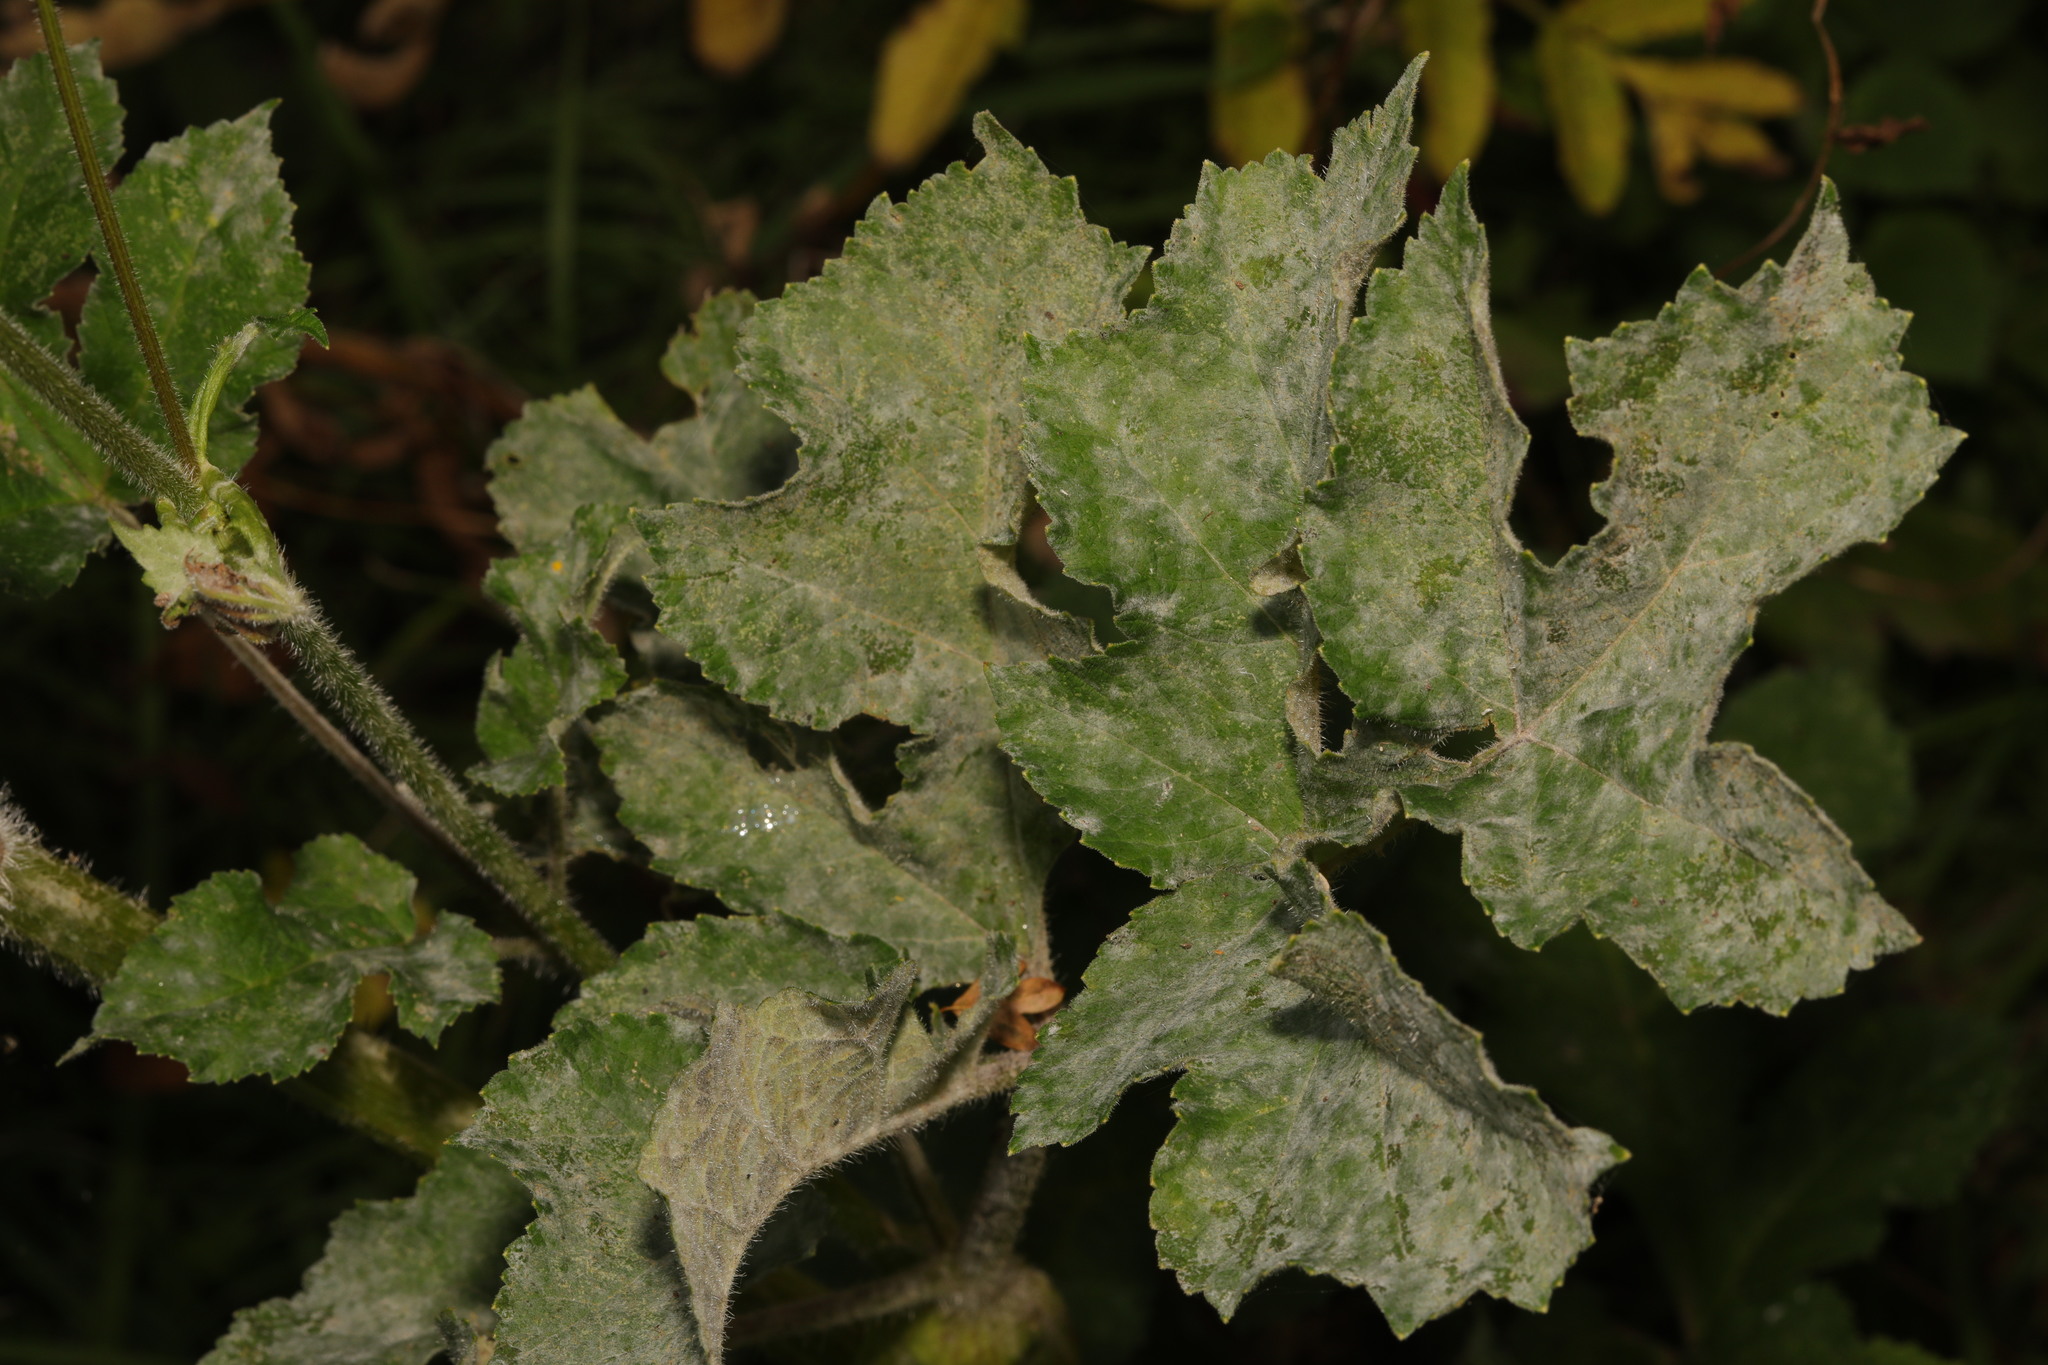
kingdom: Fungi
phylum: Ascomycota
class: Leotiomycetes
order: Helotiales
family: Erysiphaceae
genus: Erysiphe
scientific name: Erysiphe heraclei
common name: Umbellifer mildew
